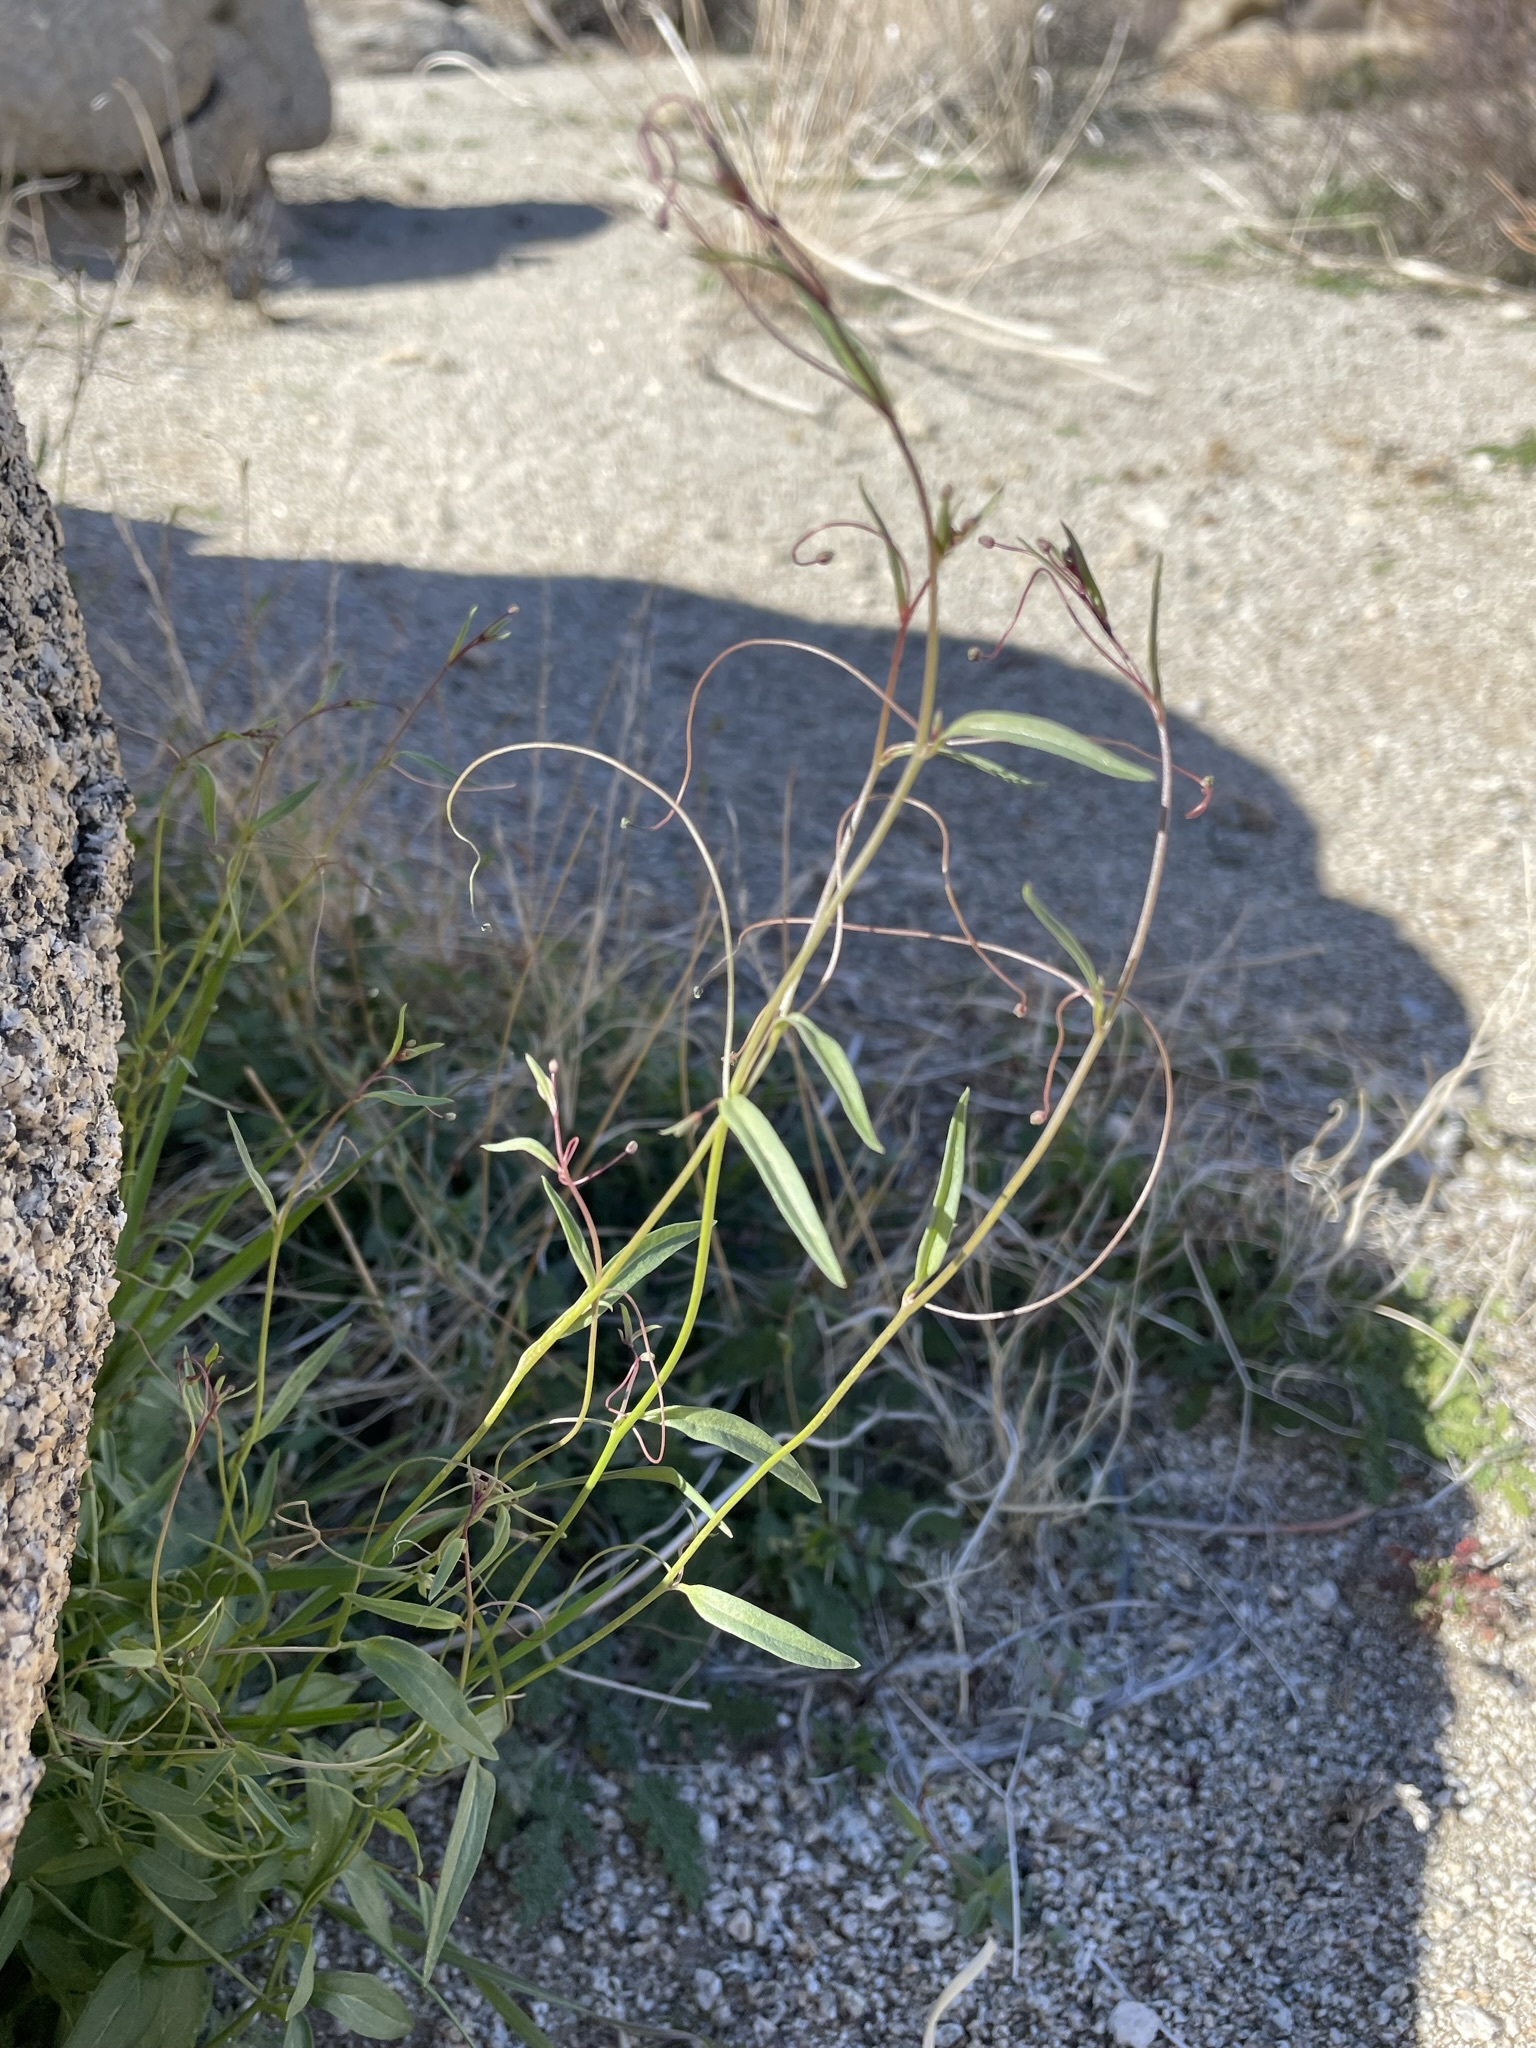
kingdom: Plantae
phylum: Tracheophyta
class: Magnoliopsida
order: Lamiales
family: Plantaginaceae
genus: Neogaerrhinum
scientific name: Neogaerrhinum filipes
